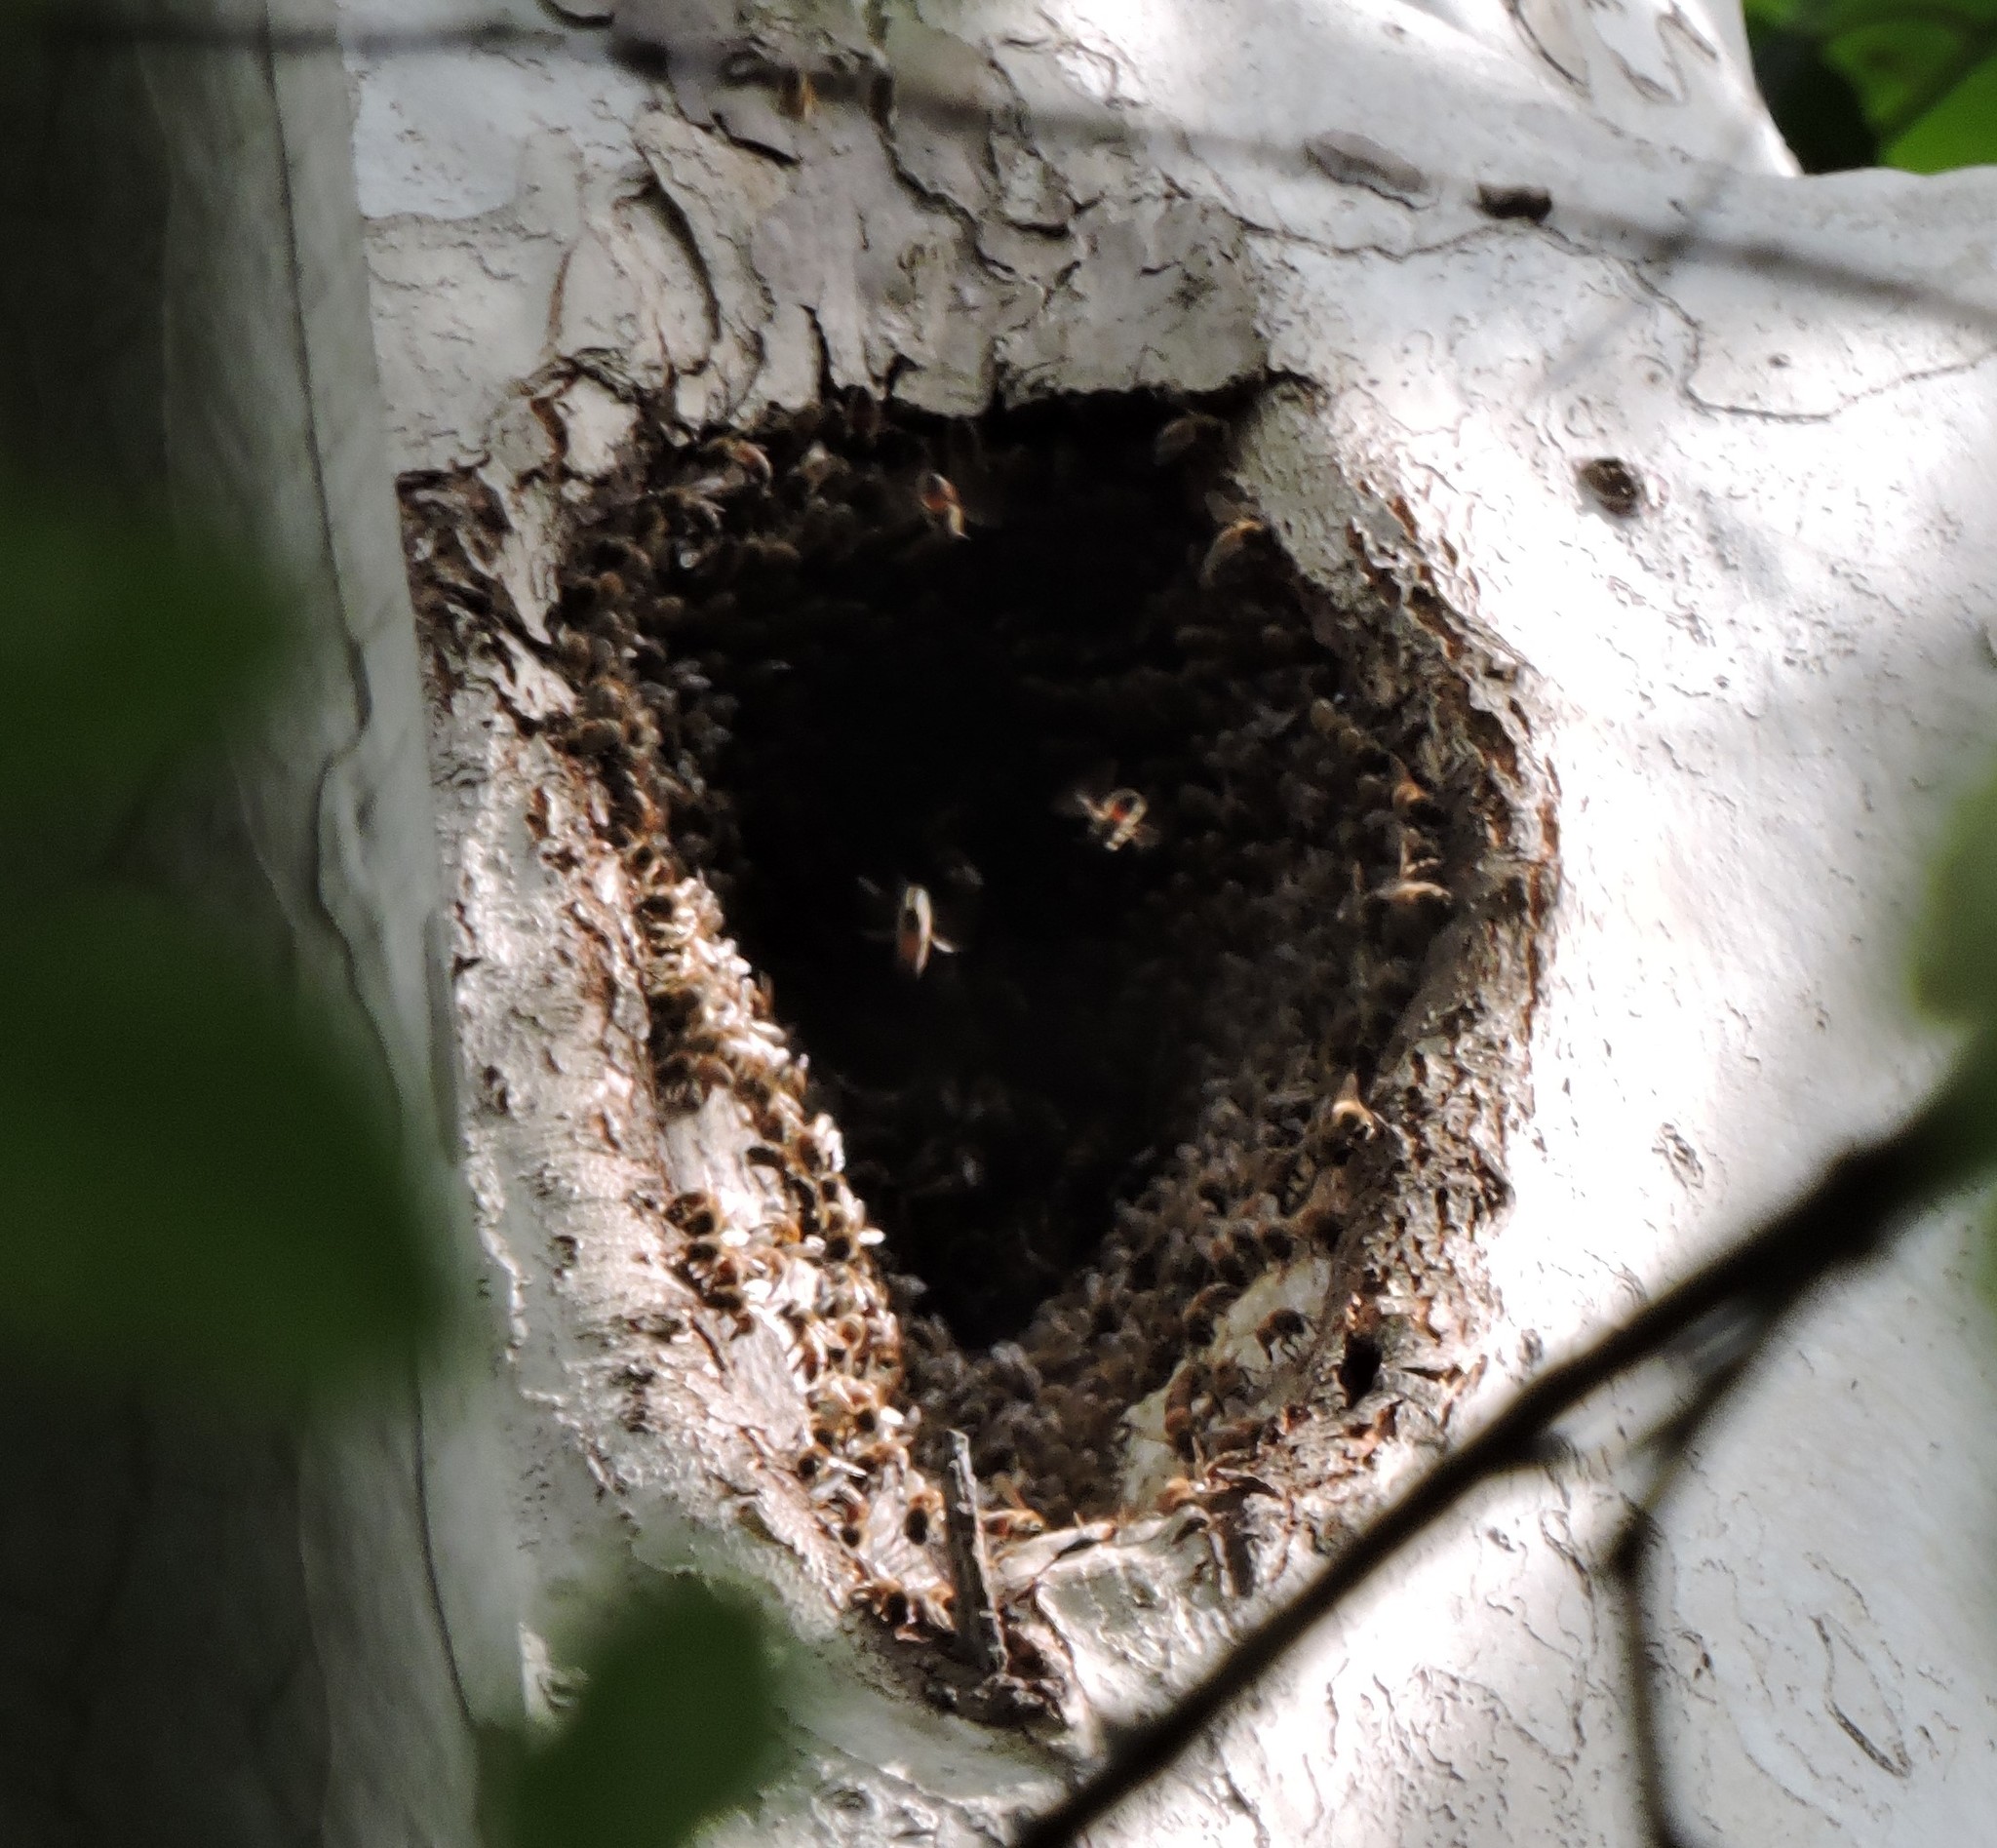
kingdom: Animalia
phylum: Arthropoda
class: Insecta
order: Hymenoptera
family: Apidae
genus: Apis
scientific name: Apis mellifera
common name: Honey bee
